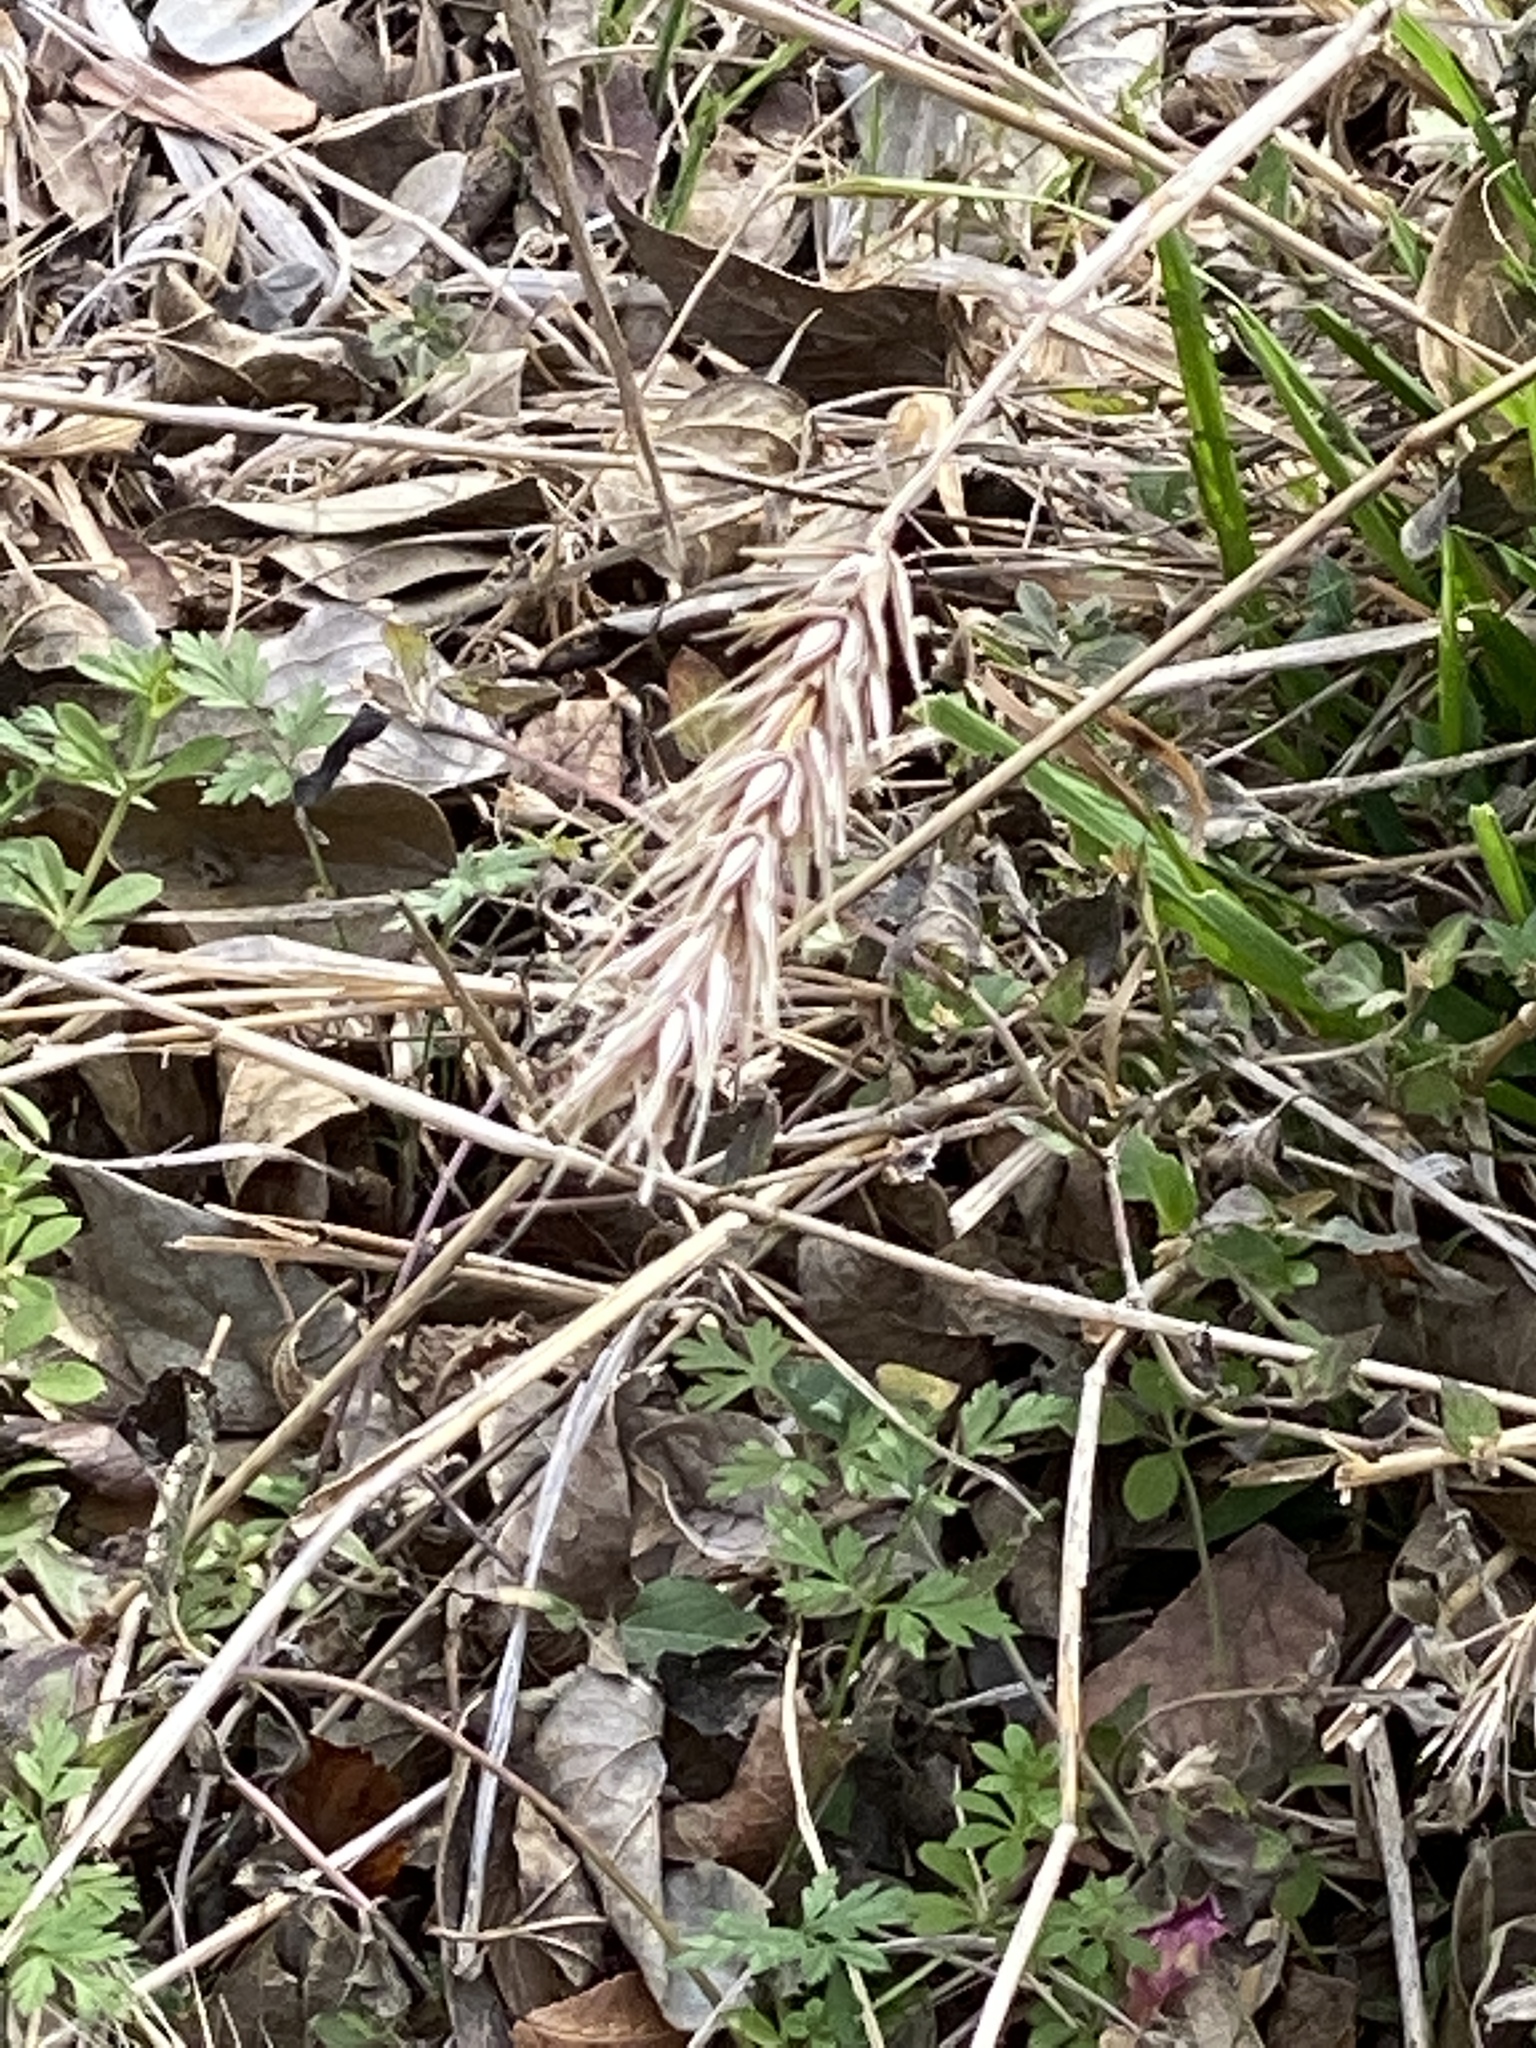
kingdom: Plantae
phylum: Tracheophyta
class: Liliopsida
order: Poales
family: Poaceae
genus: Elymus
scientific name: Elymus virginicus
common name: Common eastern wildrye
